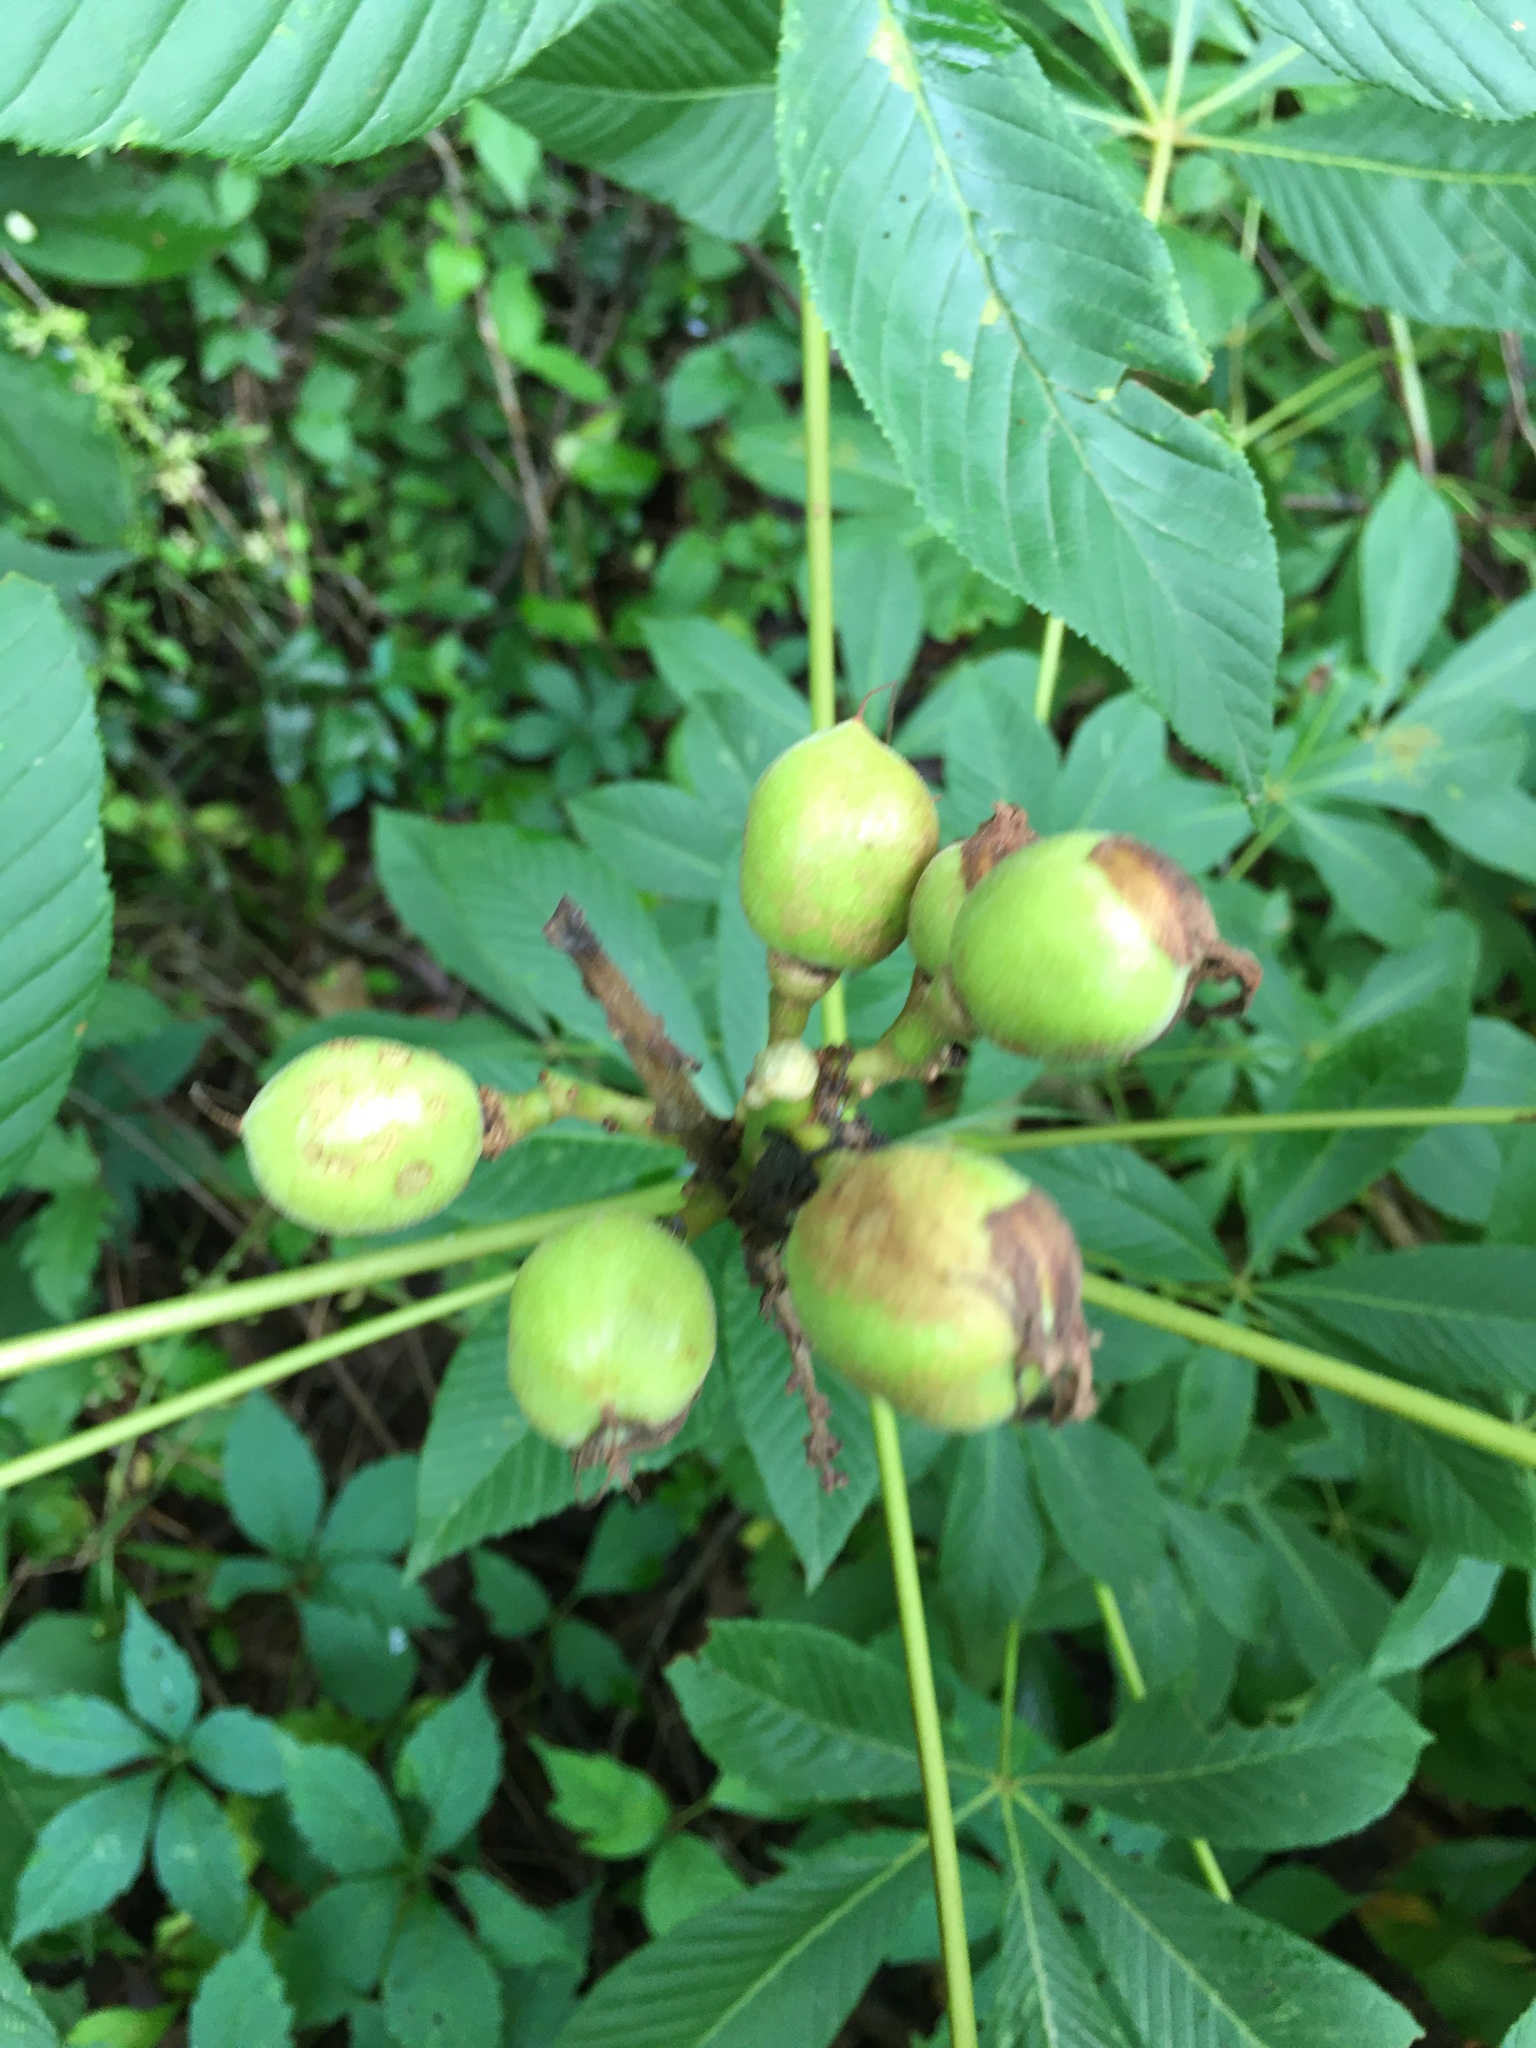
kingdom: Plantae
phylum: Tracheophyta
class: Magnoliopsida
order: Sapindales
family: Sapindaceae
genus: Aesculus
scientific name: Aesculus sylvatica
